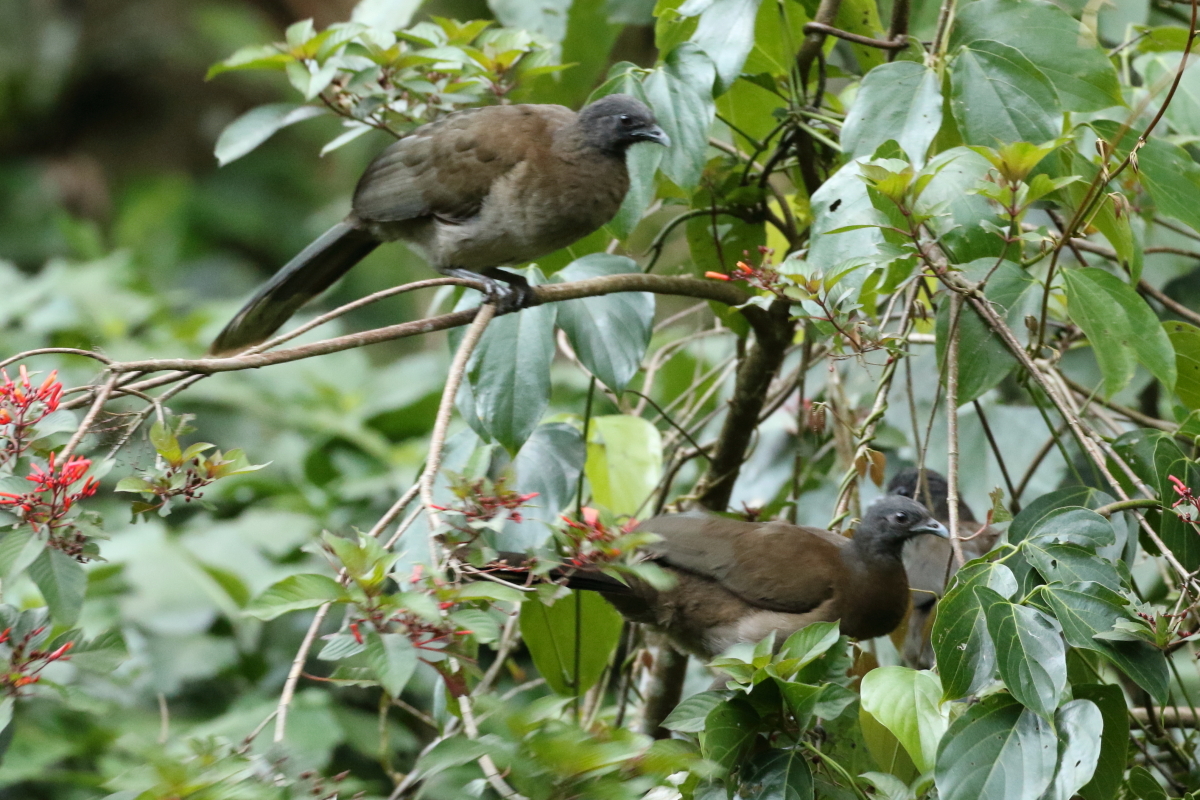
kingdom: Animalia
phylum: Chordata
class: Aves
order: Galliformes
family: Cracidae
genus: Ortalis
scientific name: Ortalis cinereiceps
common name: Grey-headed chachalaca
